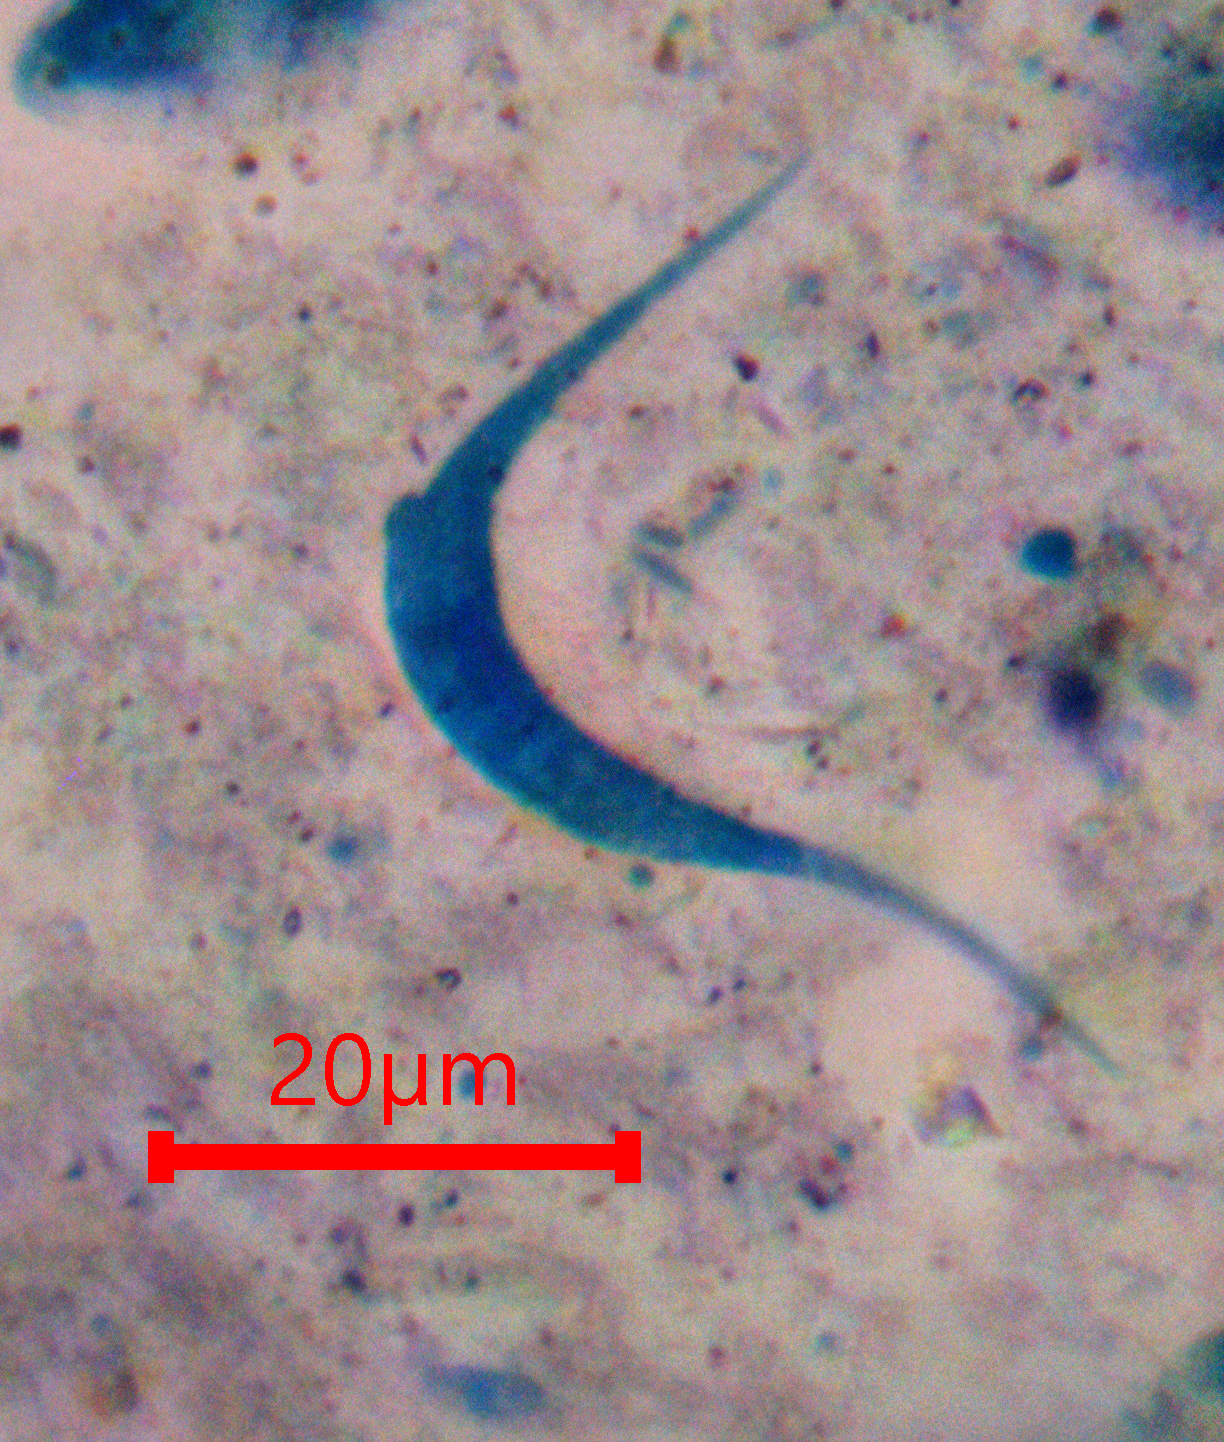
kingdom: Fungi
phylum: Ascomycota
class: Sordariomycetes
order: Sordariales
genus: Lunulospora
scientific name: Lunulospora curvula
